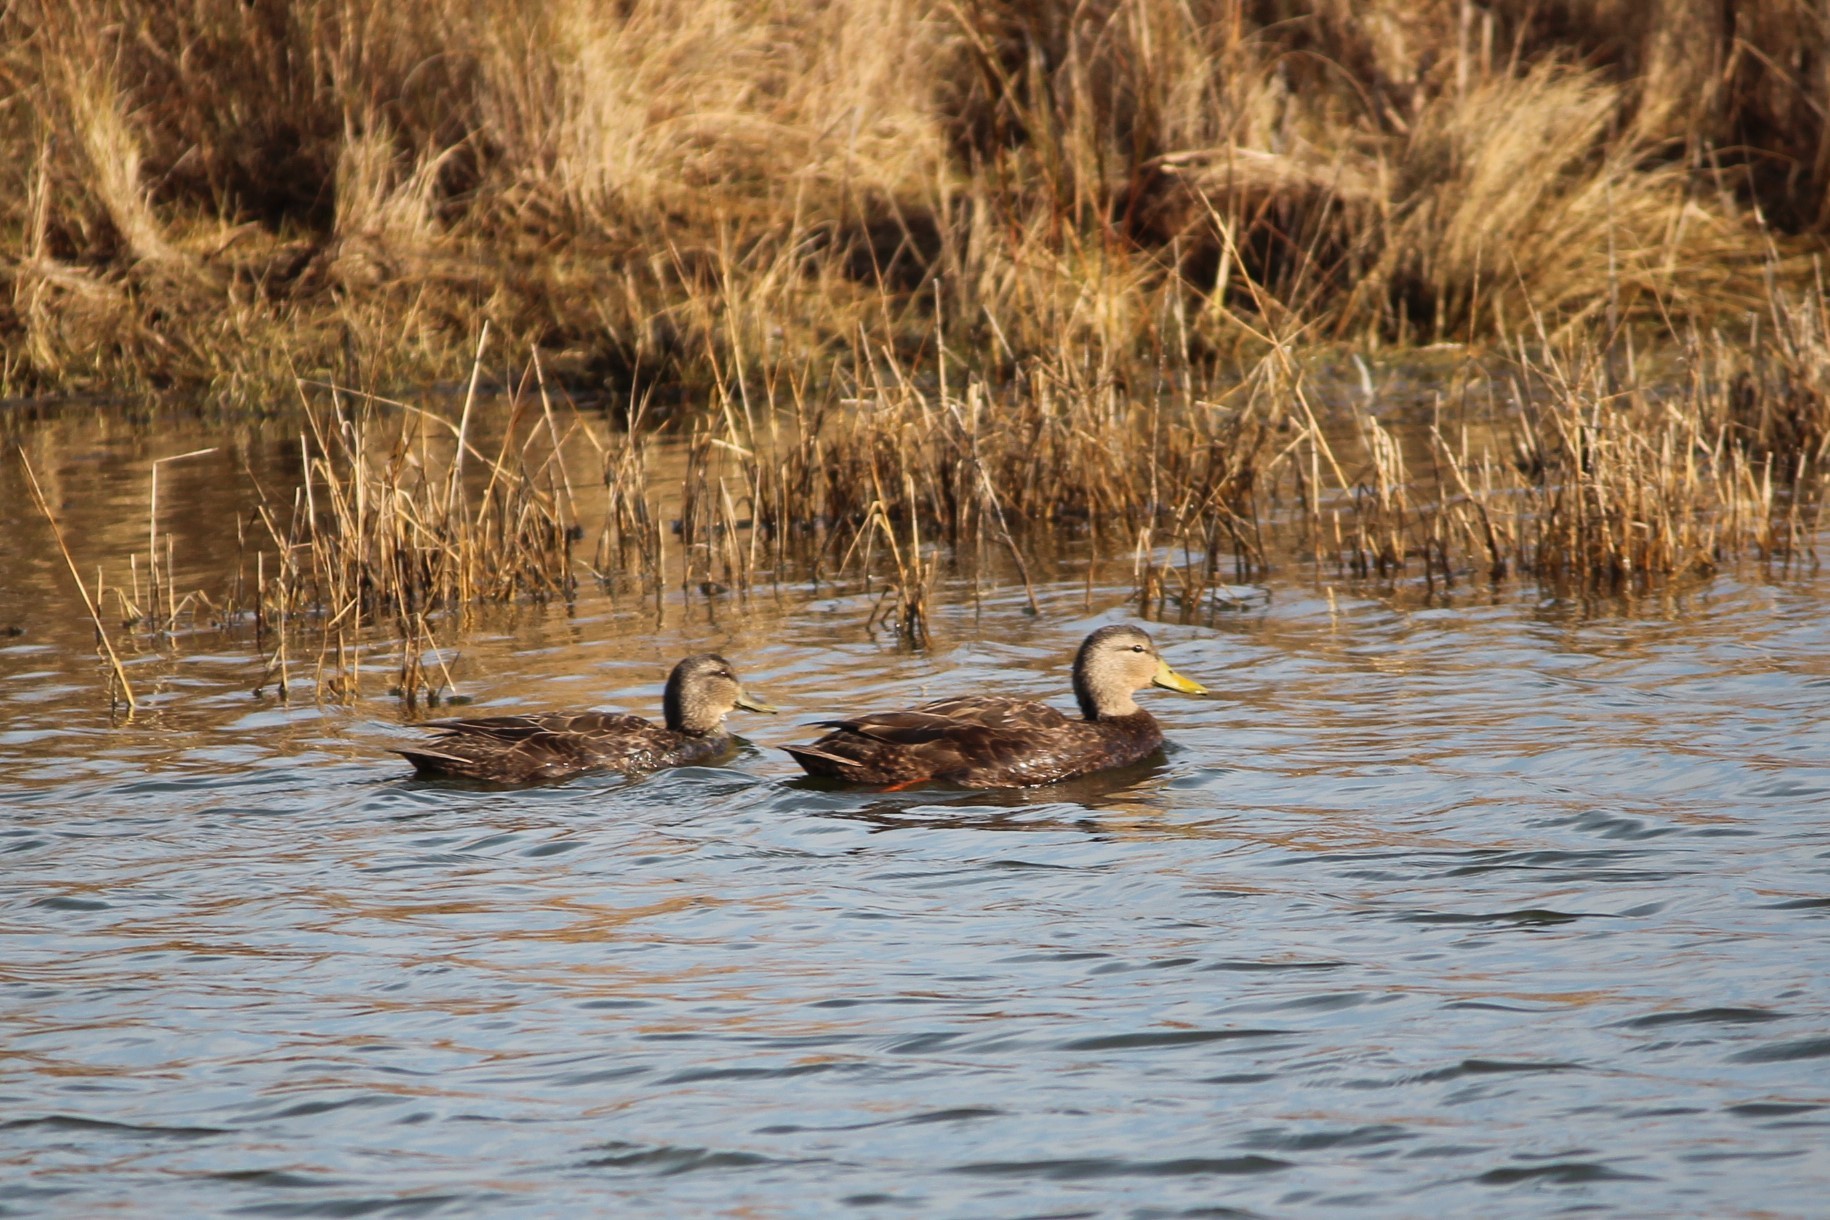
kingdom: Animalia
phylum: Chordata
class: Aves
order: Anseriformes
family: Anatidae
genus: Anas
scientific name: Anas rubripes
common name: American black duck
